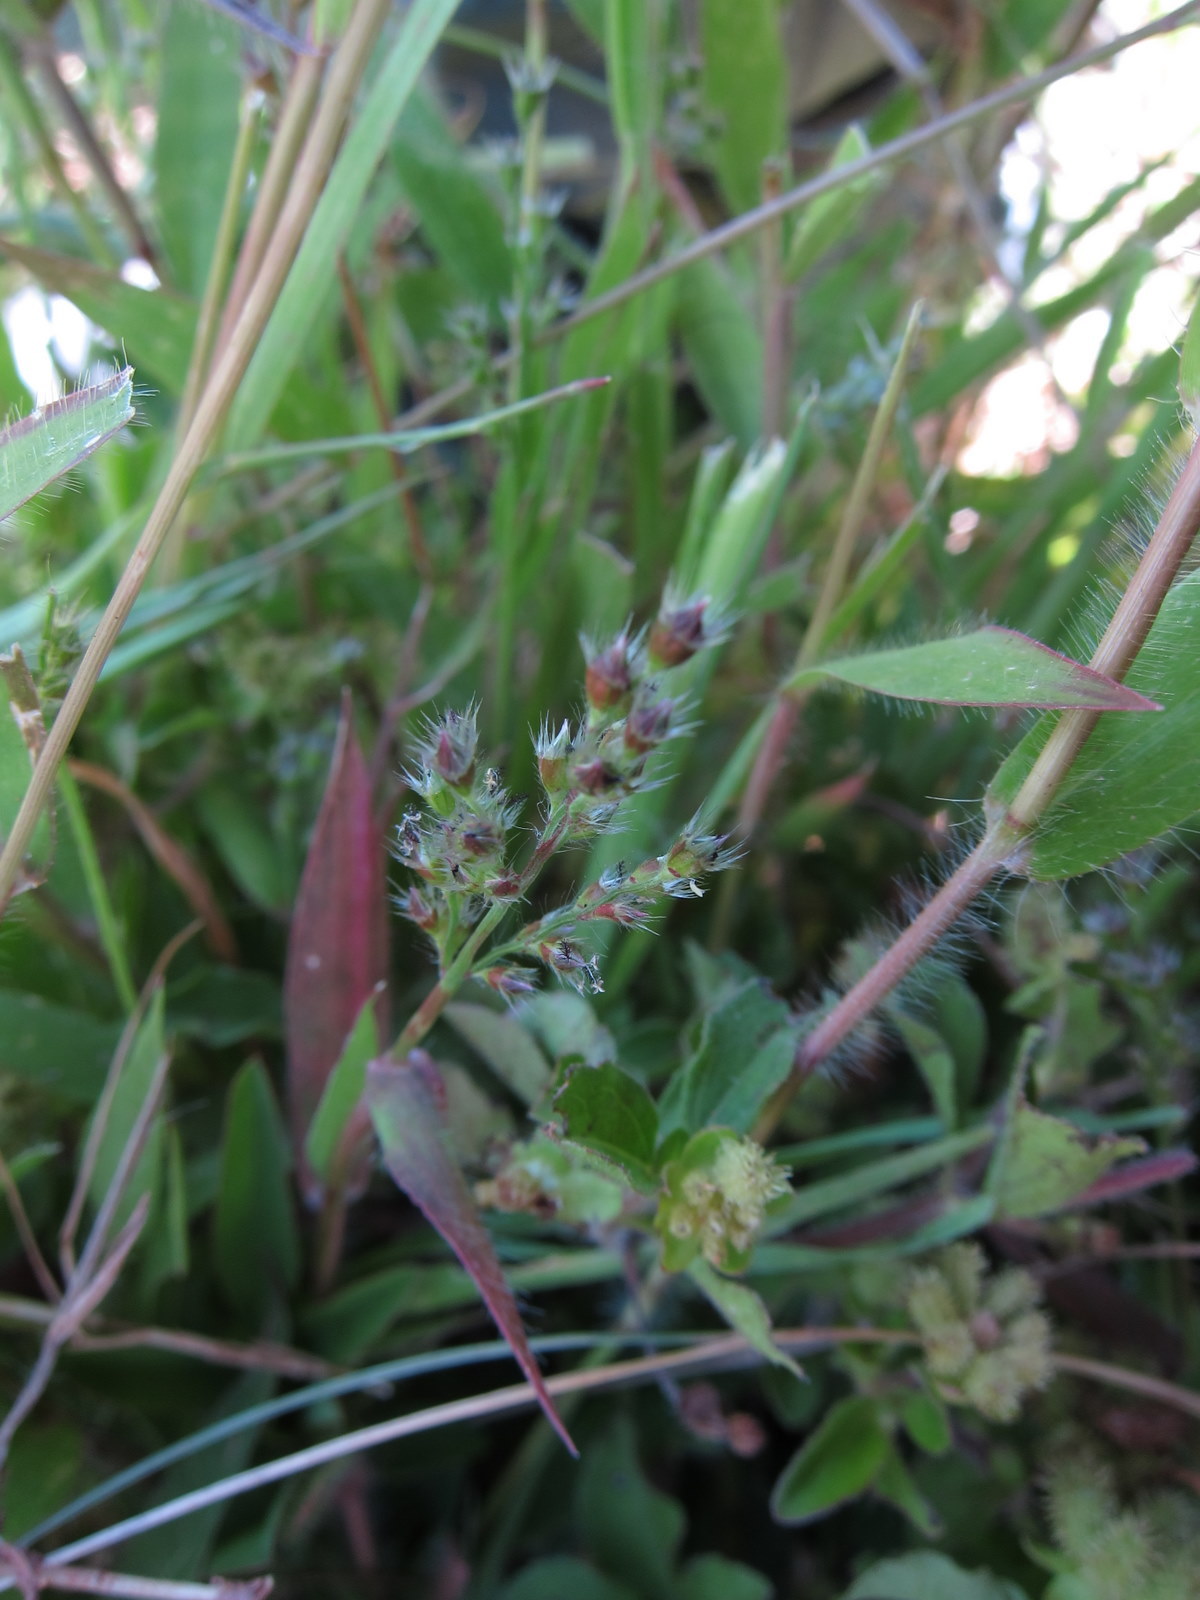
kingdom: Plantae
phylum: Tracheophyta
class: Liliopsida
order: Poales
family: Poaceae
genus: Urochloa
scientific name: Urochloa Brachiaria subrostrata
